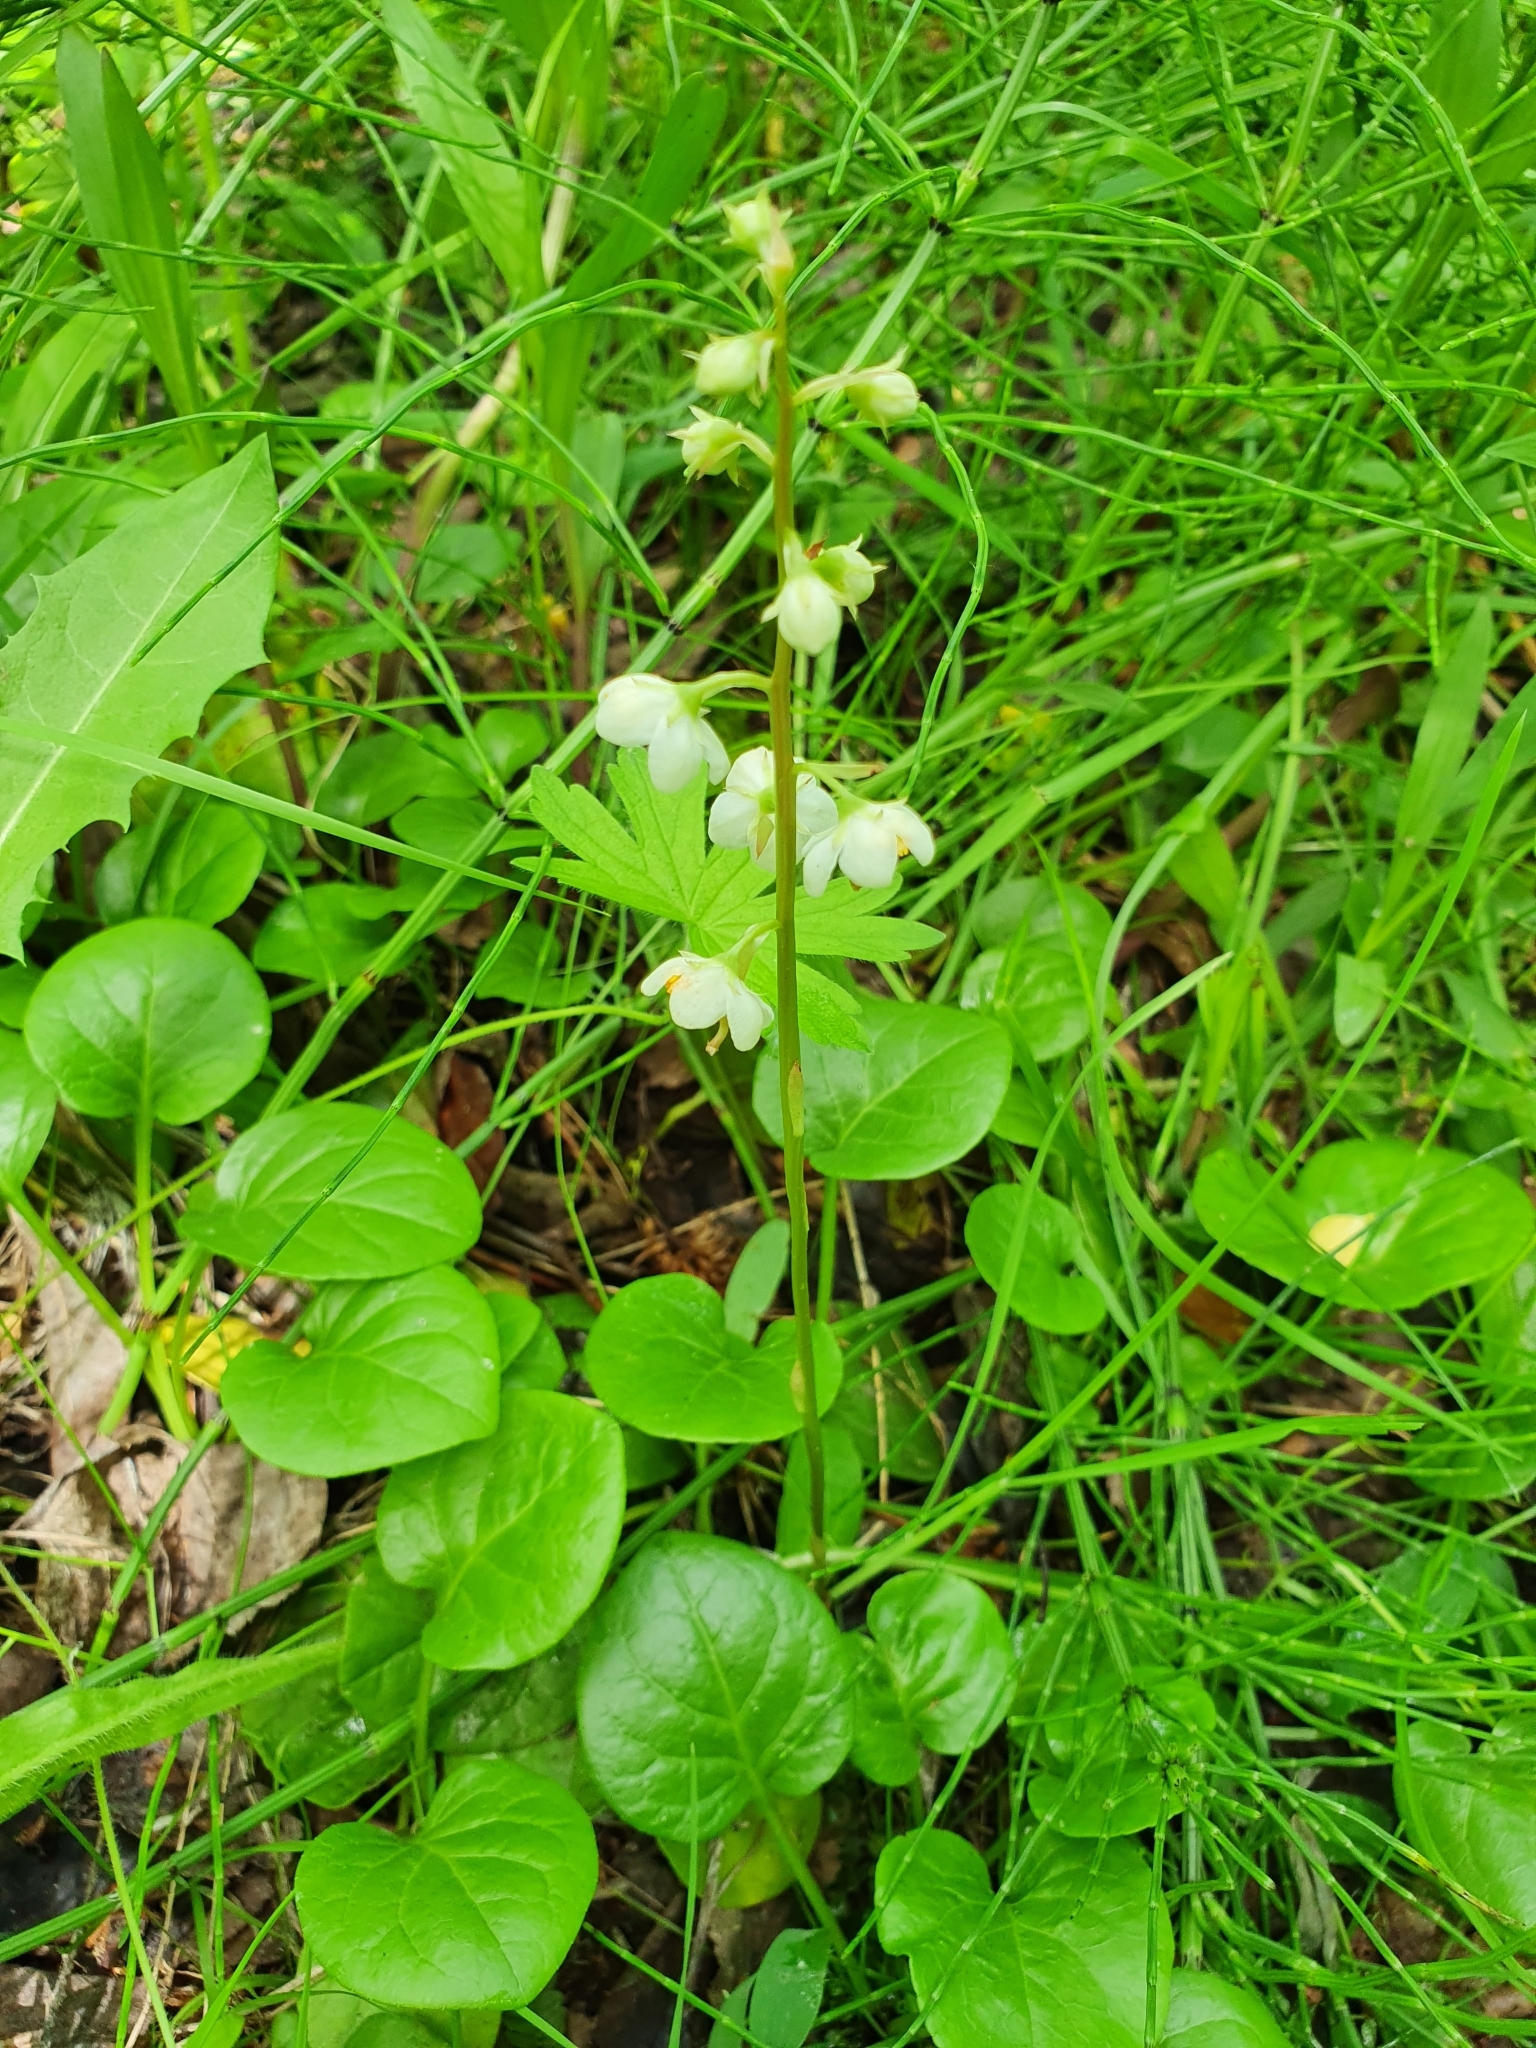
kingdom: Plantae
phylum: Tracheophyta
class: Magnoliopsida
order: Ericales
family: Ericaceae
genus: Pyrola
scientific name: Pyrola rotundifolia
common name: Round-leaved wintergreen
